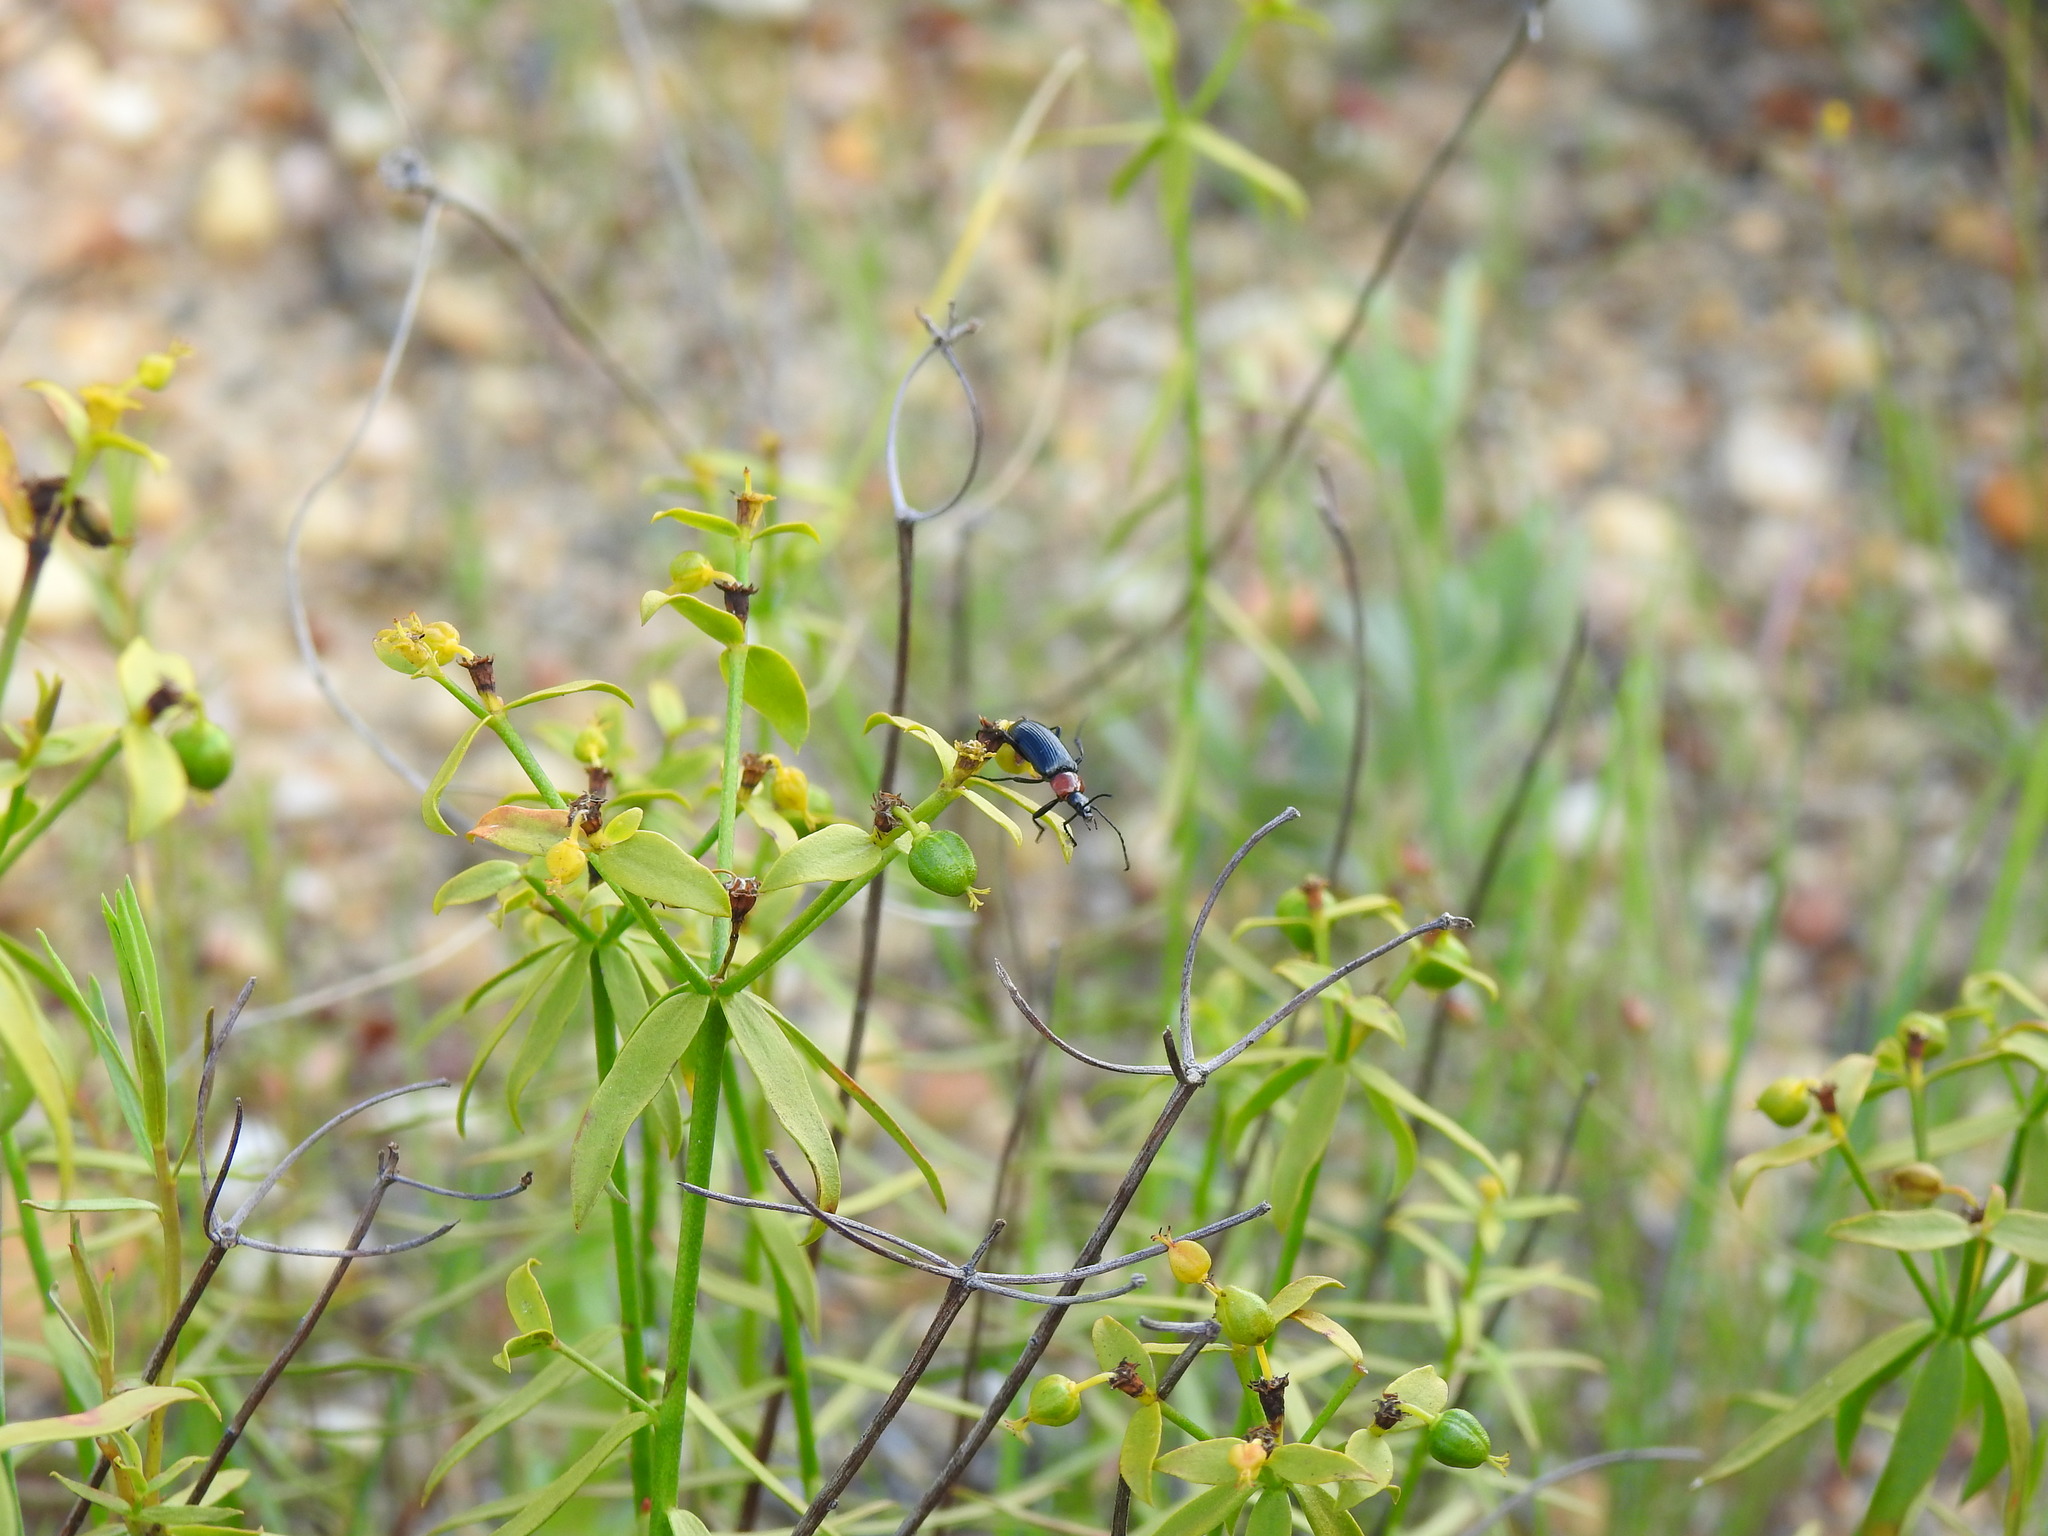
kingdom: Animalia
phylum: Arthropoda
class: Insecta
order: Coleoptera
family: Tenebrionidae
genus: Heliotaurus
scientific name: Heliotaurus ruficollis
